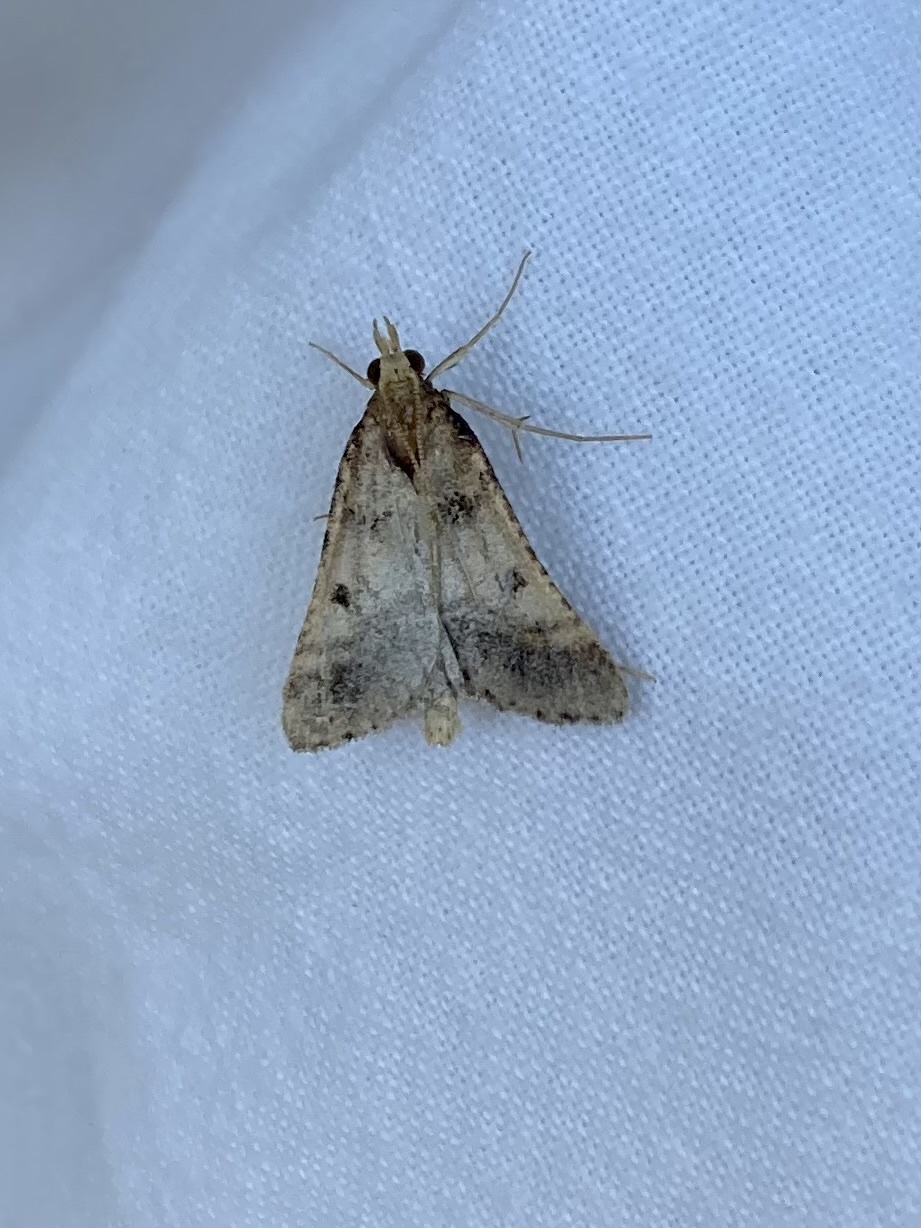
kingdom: Animalia
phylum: Arthropoda
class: Insecta
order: Lepidoptera
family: Pyralidae
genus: Stemmatophora
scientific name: Stemmatophora brunnealis
